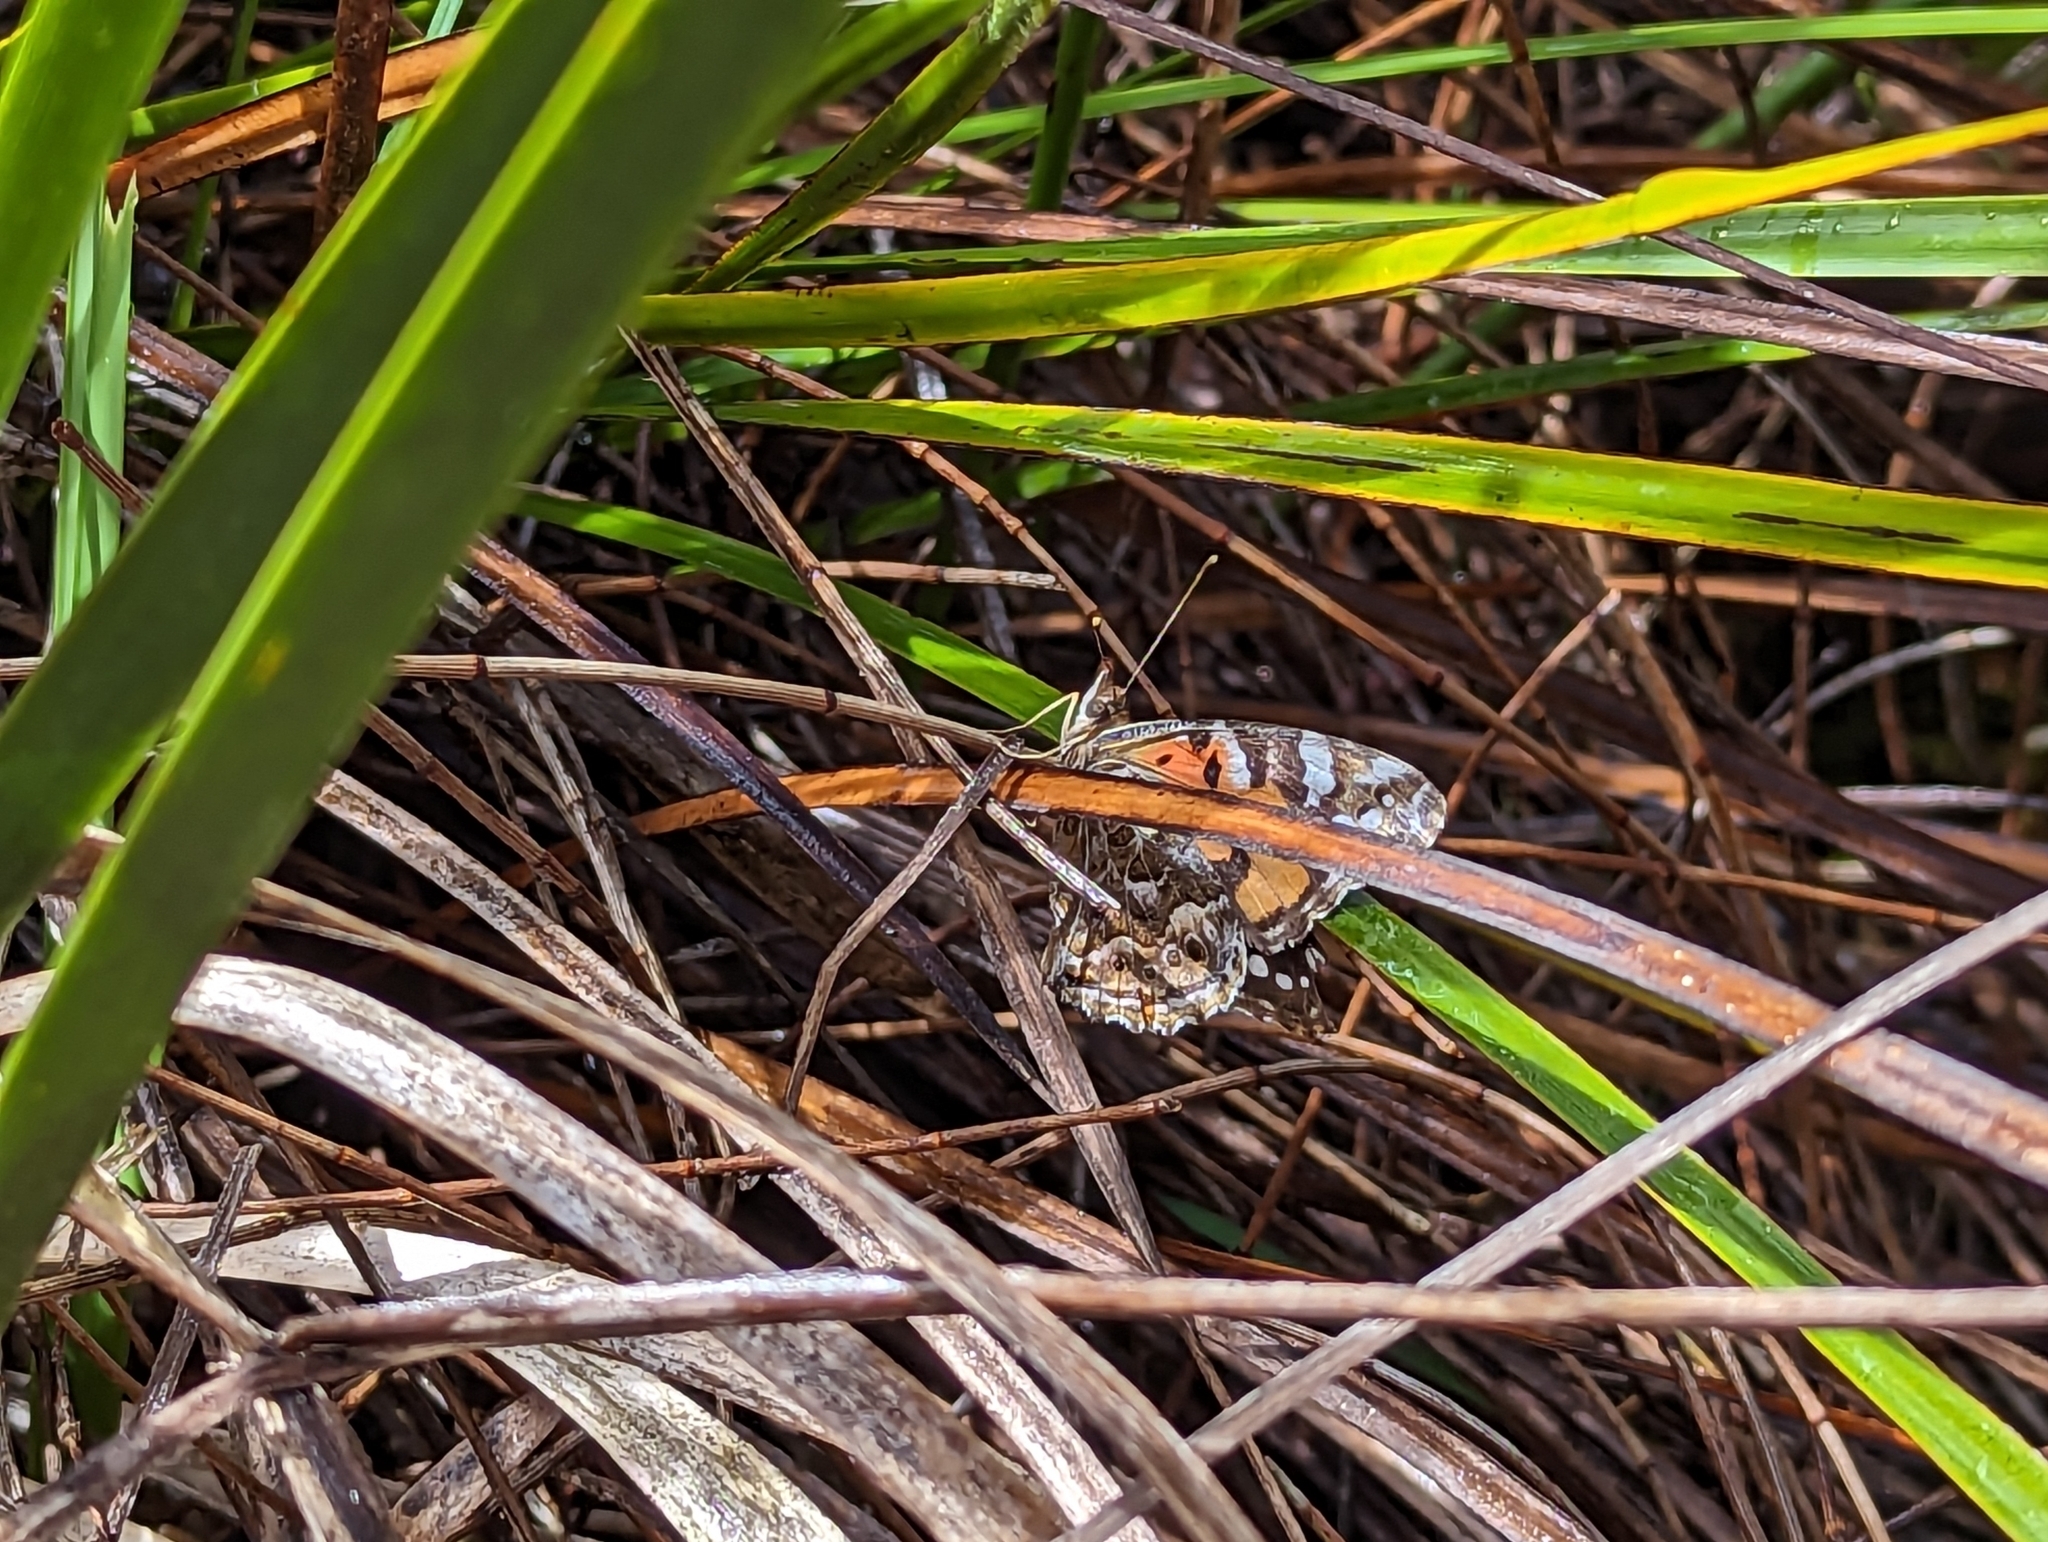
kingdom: Animalia
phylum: Arthropoda
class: Insecta
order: Lepidoptera
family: Nymphalidae
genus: Vanessa
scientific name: Vanessa kershawi
